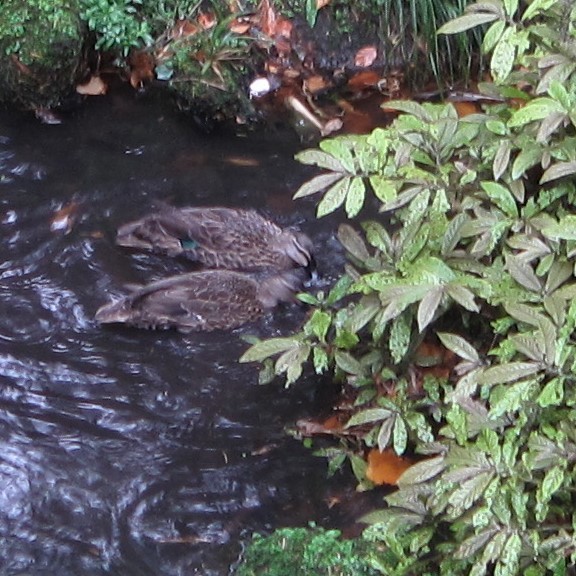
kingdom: Animalia
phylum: Chordata
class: Aves
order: Anseriformes
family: Anatidae
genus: Anas
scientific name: Anas
